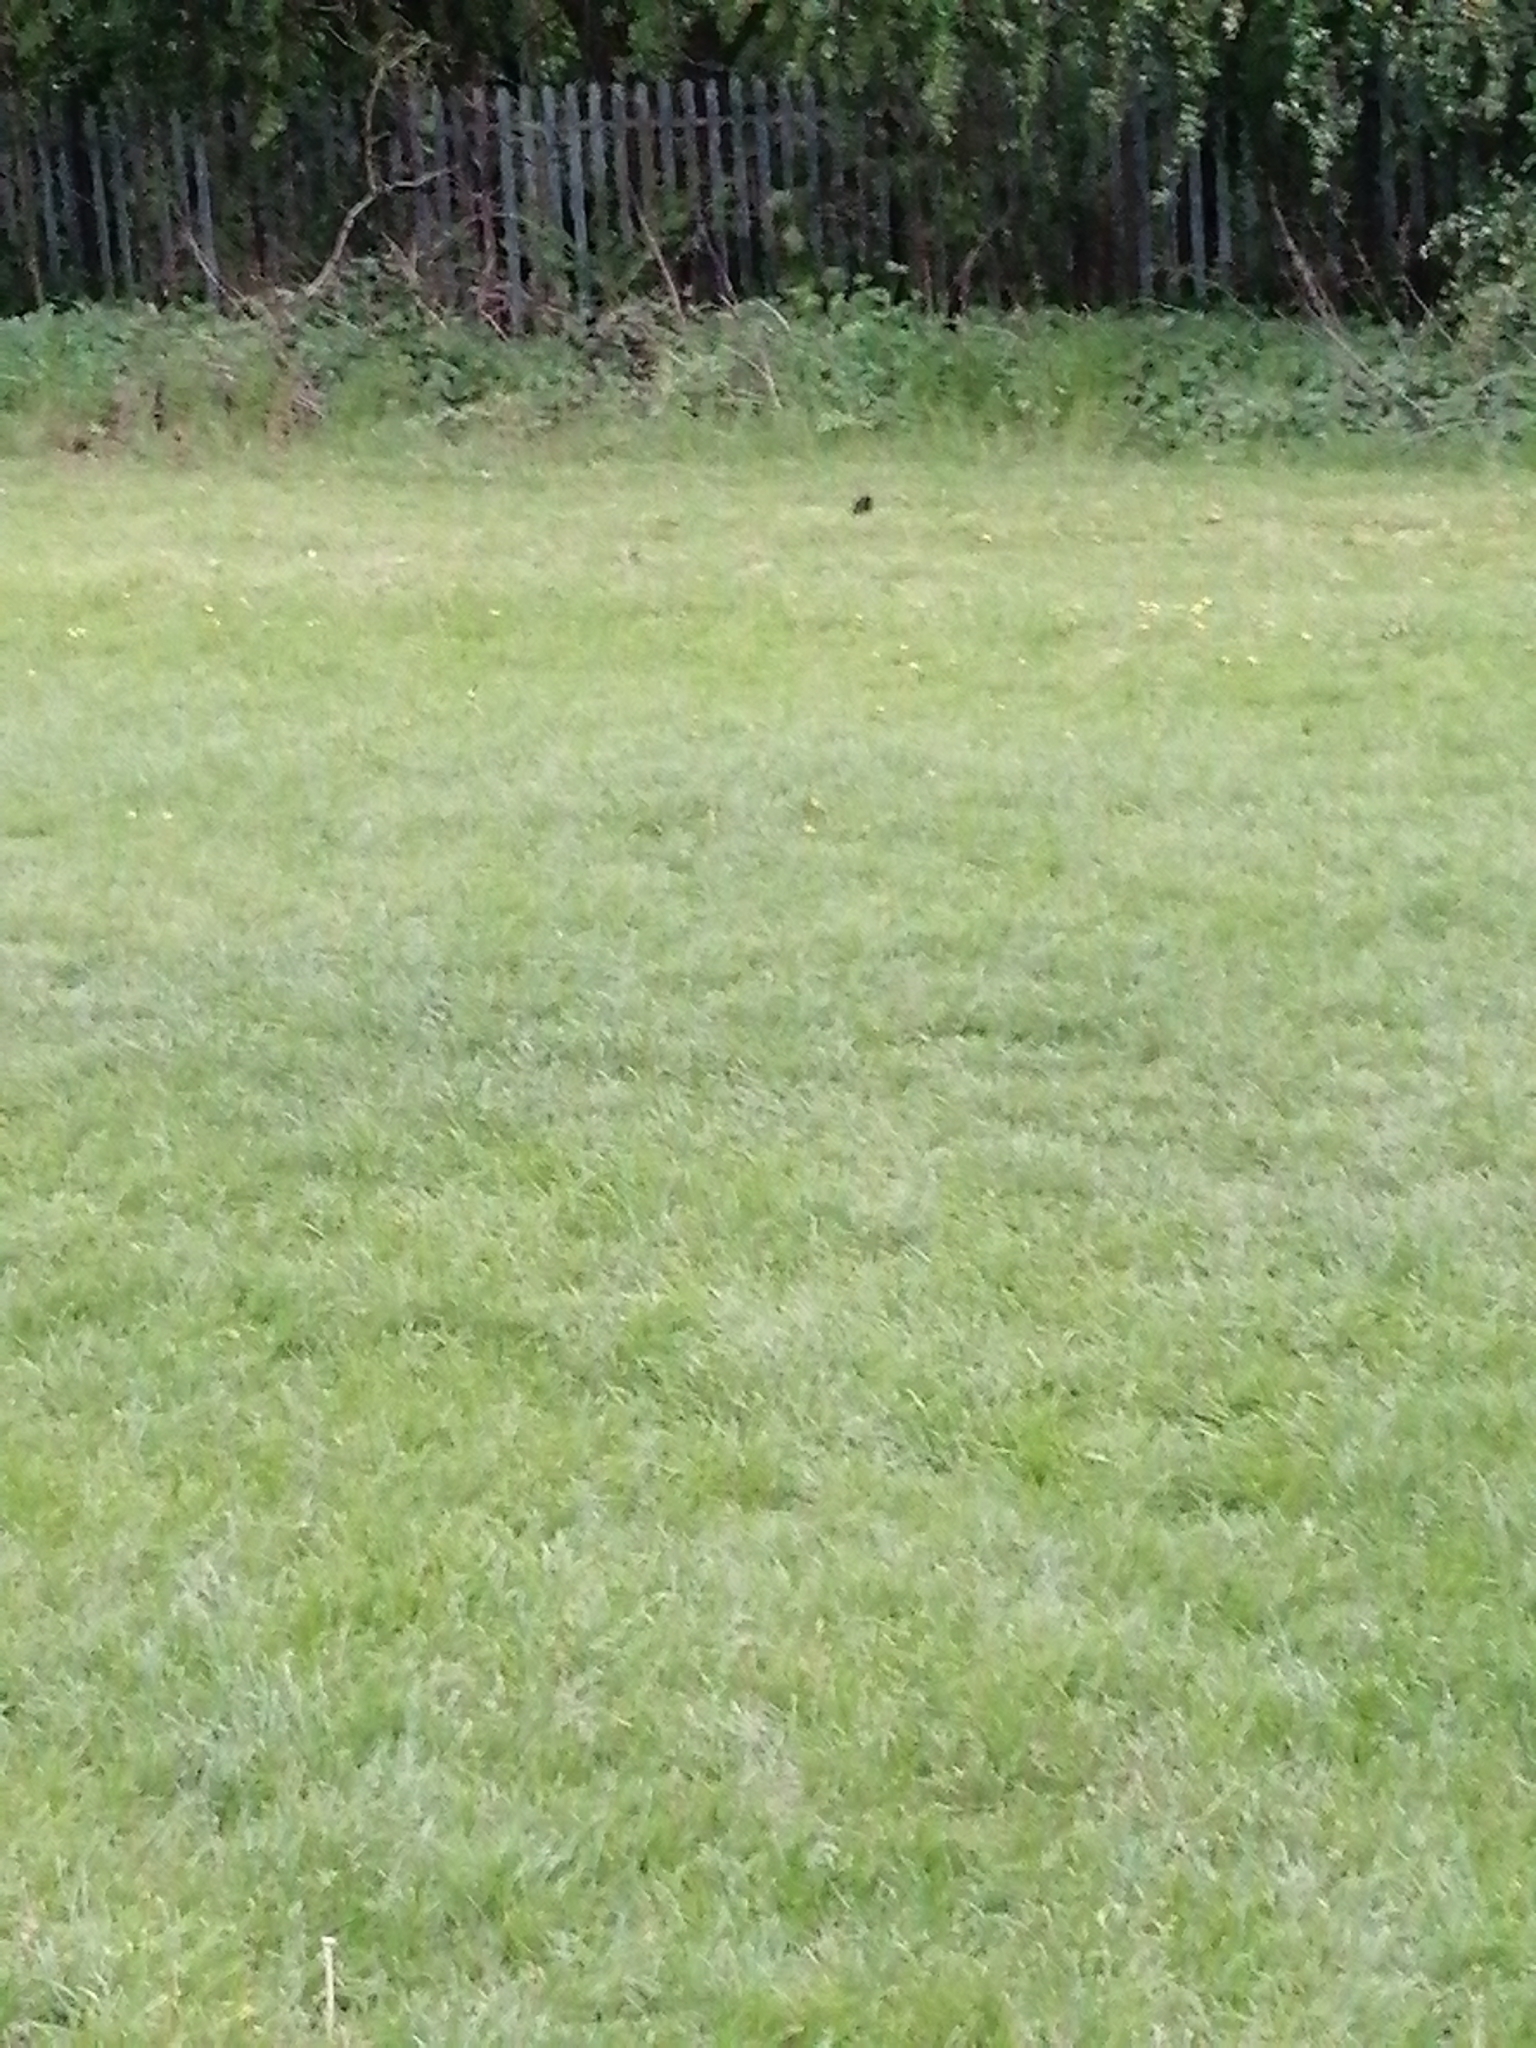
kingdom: Animalia
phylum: Chordata
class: Aves
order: Passeriformes
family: Turdidae
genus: Turdus
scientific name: Turdus merula
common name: Common blackbird
